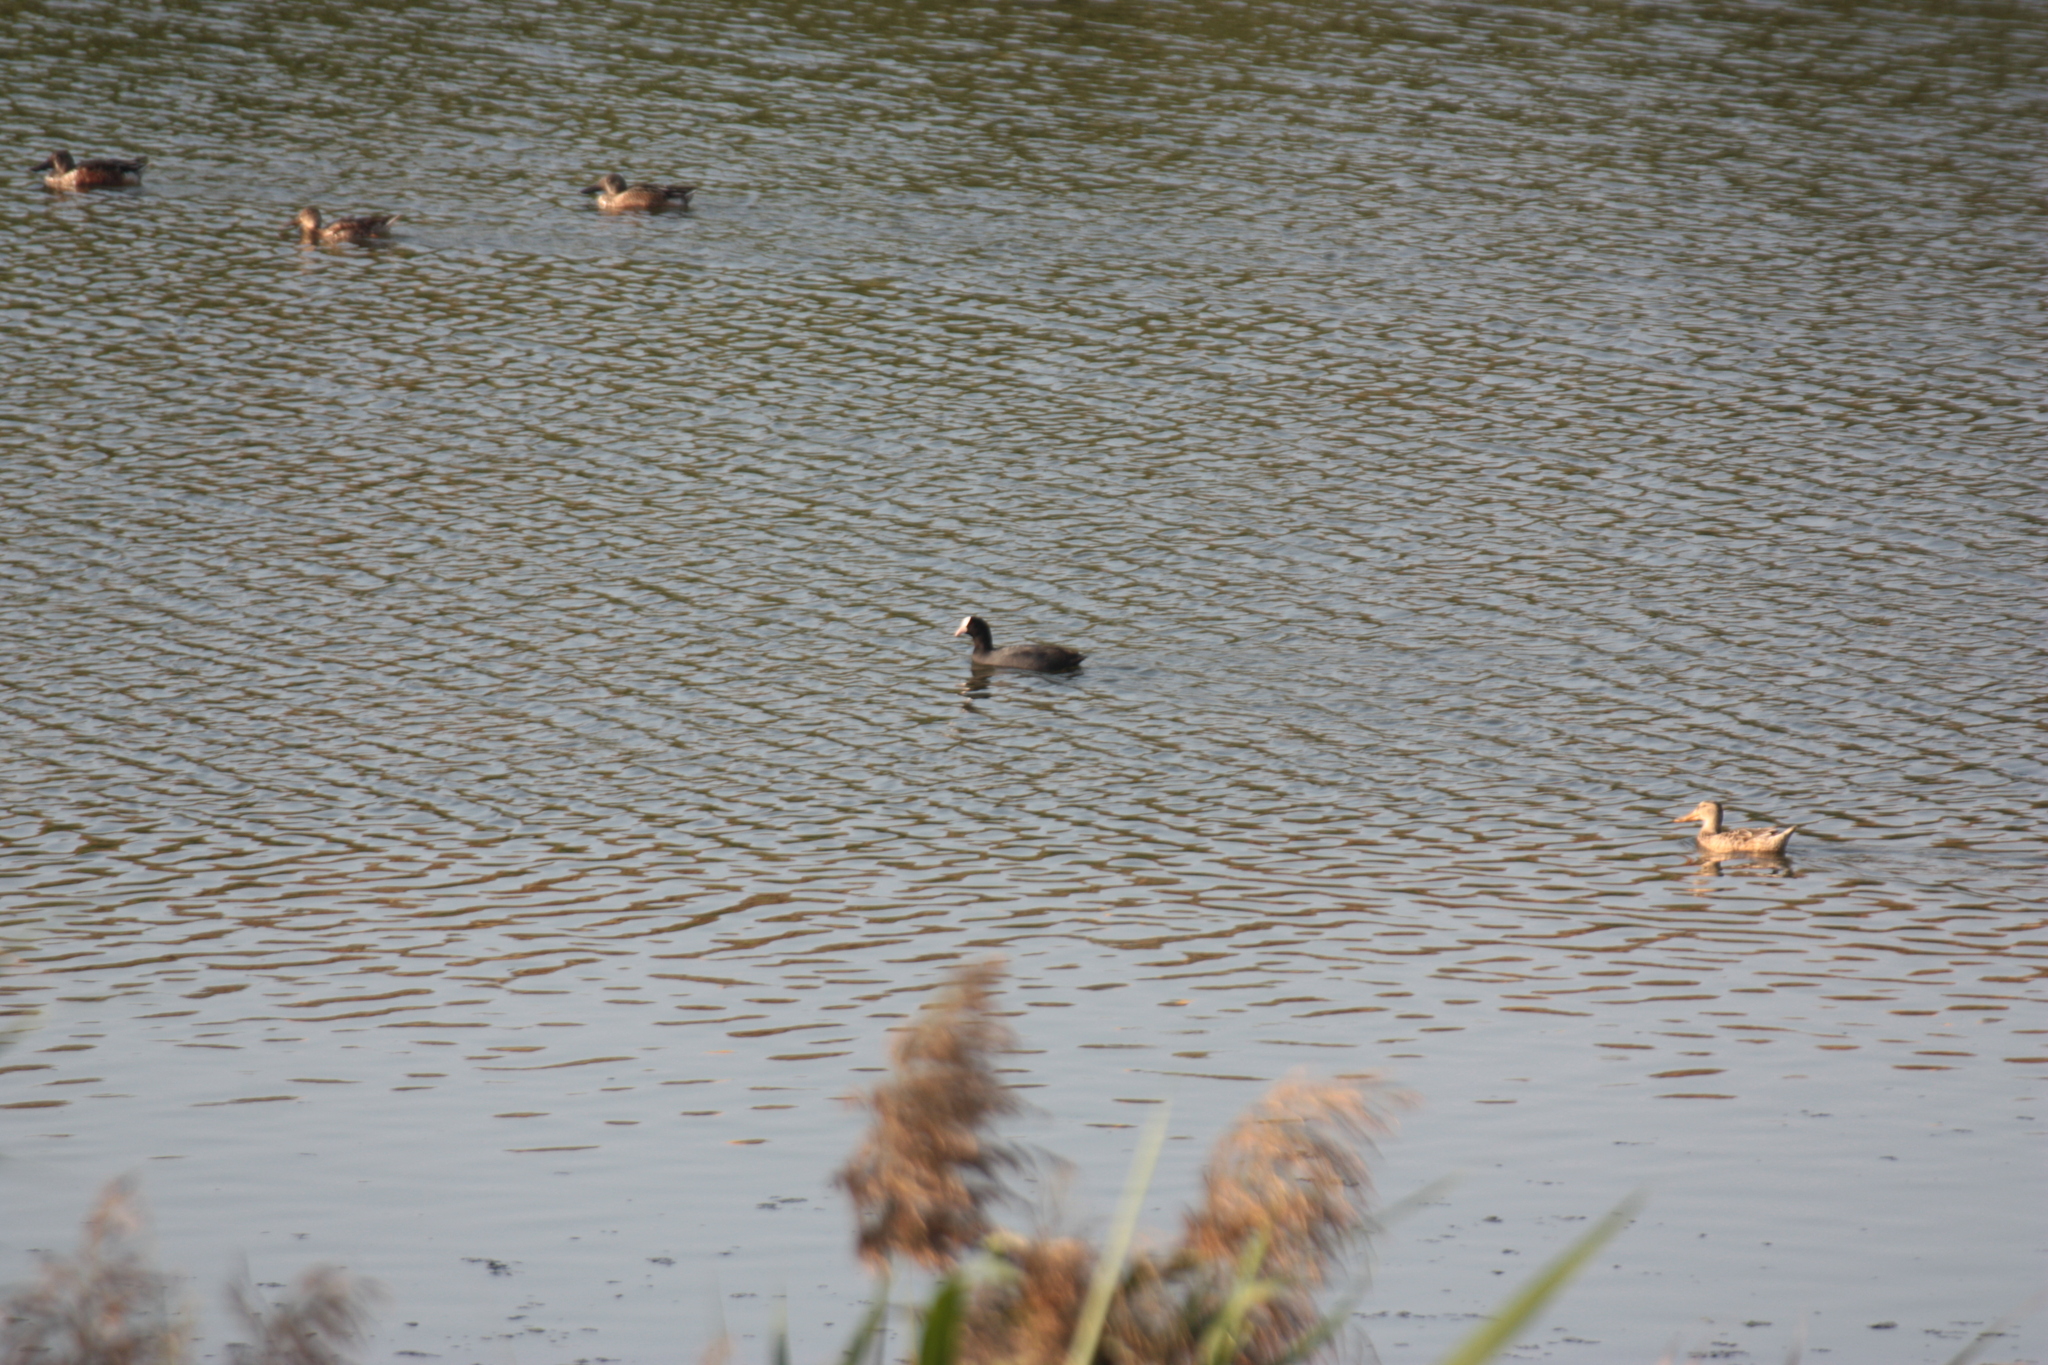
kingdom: Animalia
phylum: Chordata
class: Aves
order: Gruiformes
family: Rallidae
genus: Fulica
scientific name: Fulica atra
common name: Eurasian coot
